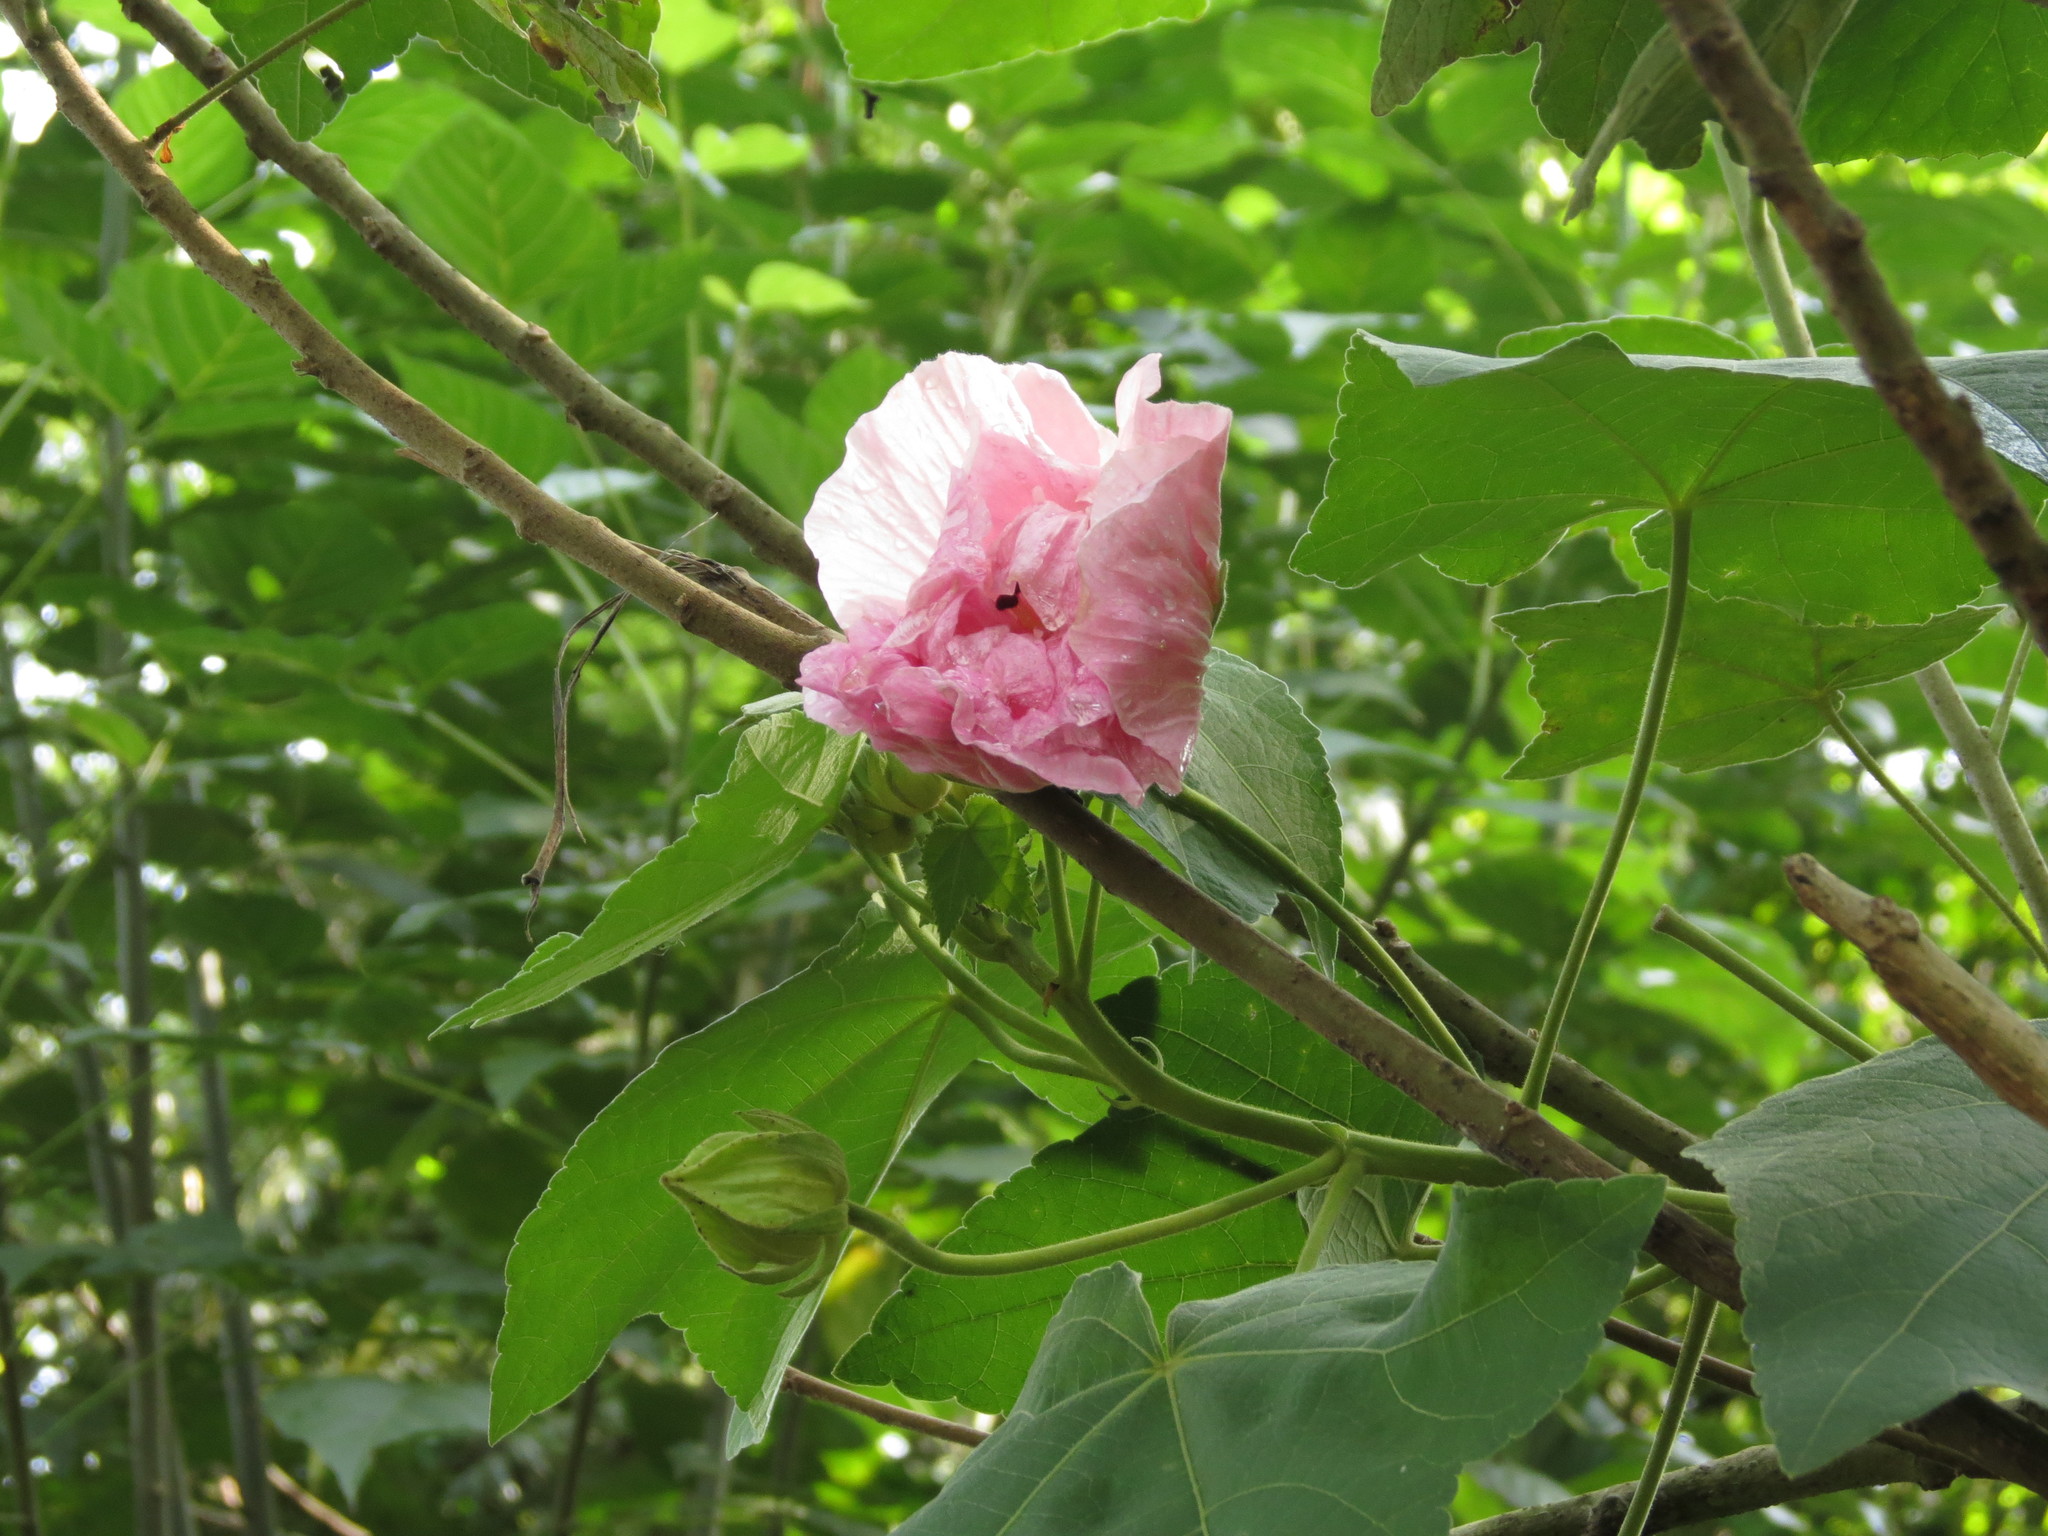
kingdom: Plantae
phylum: Tracheophyta
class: Magnoliopsida
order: Malvales
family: Malvaceae
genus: Hibiscus
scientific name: Hibiscus mutabilis
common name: Dixie rosemallow
